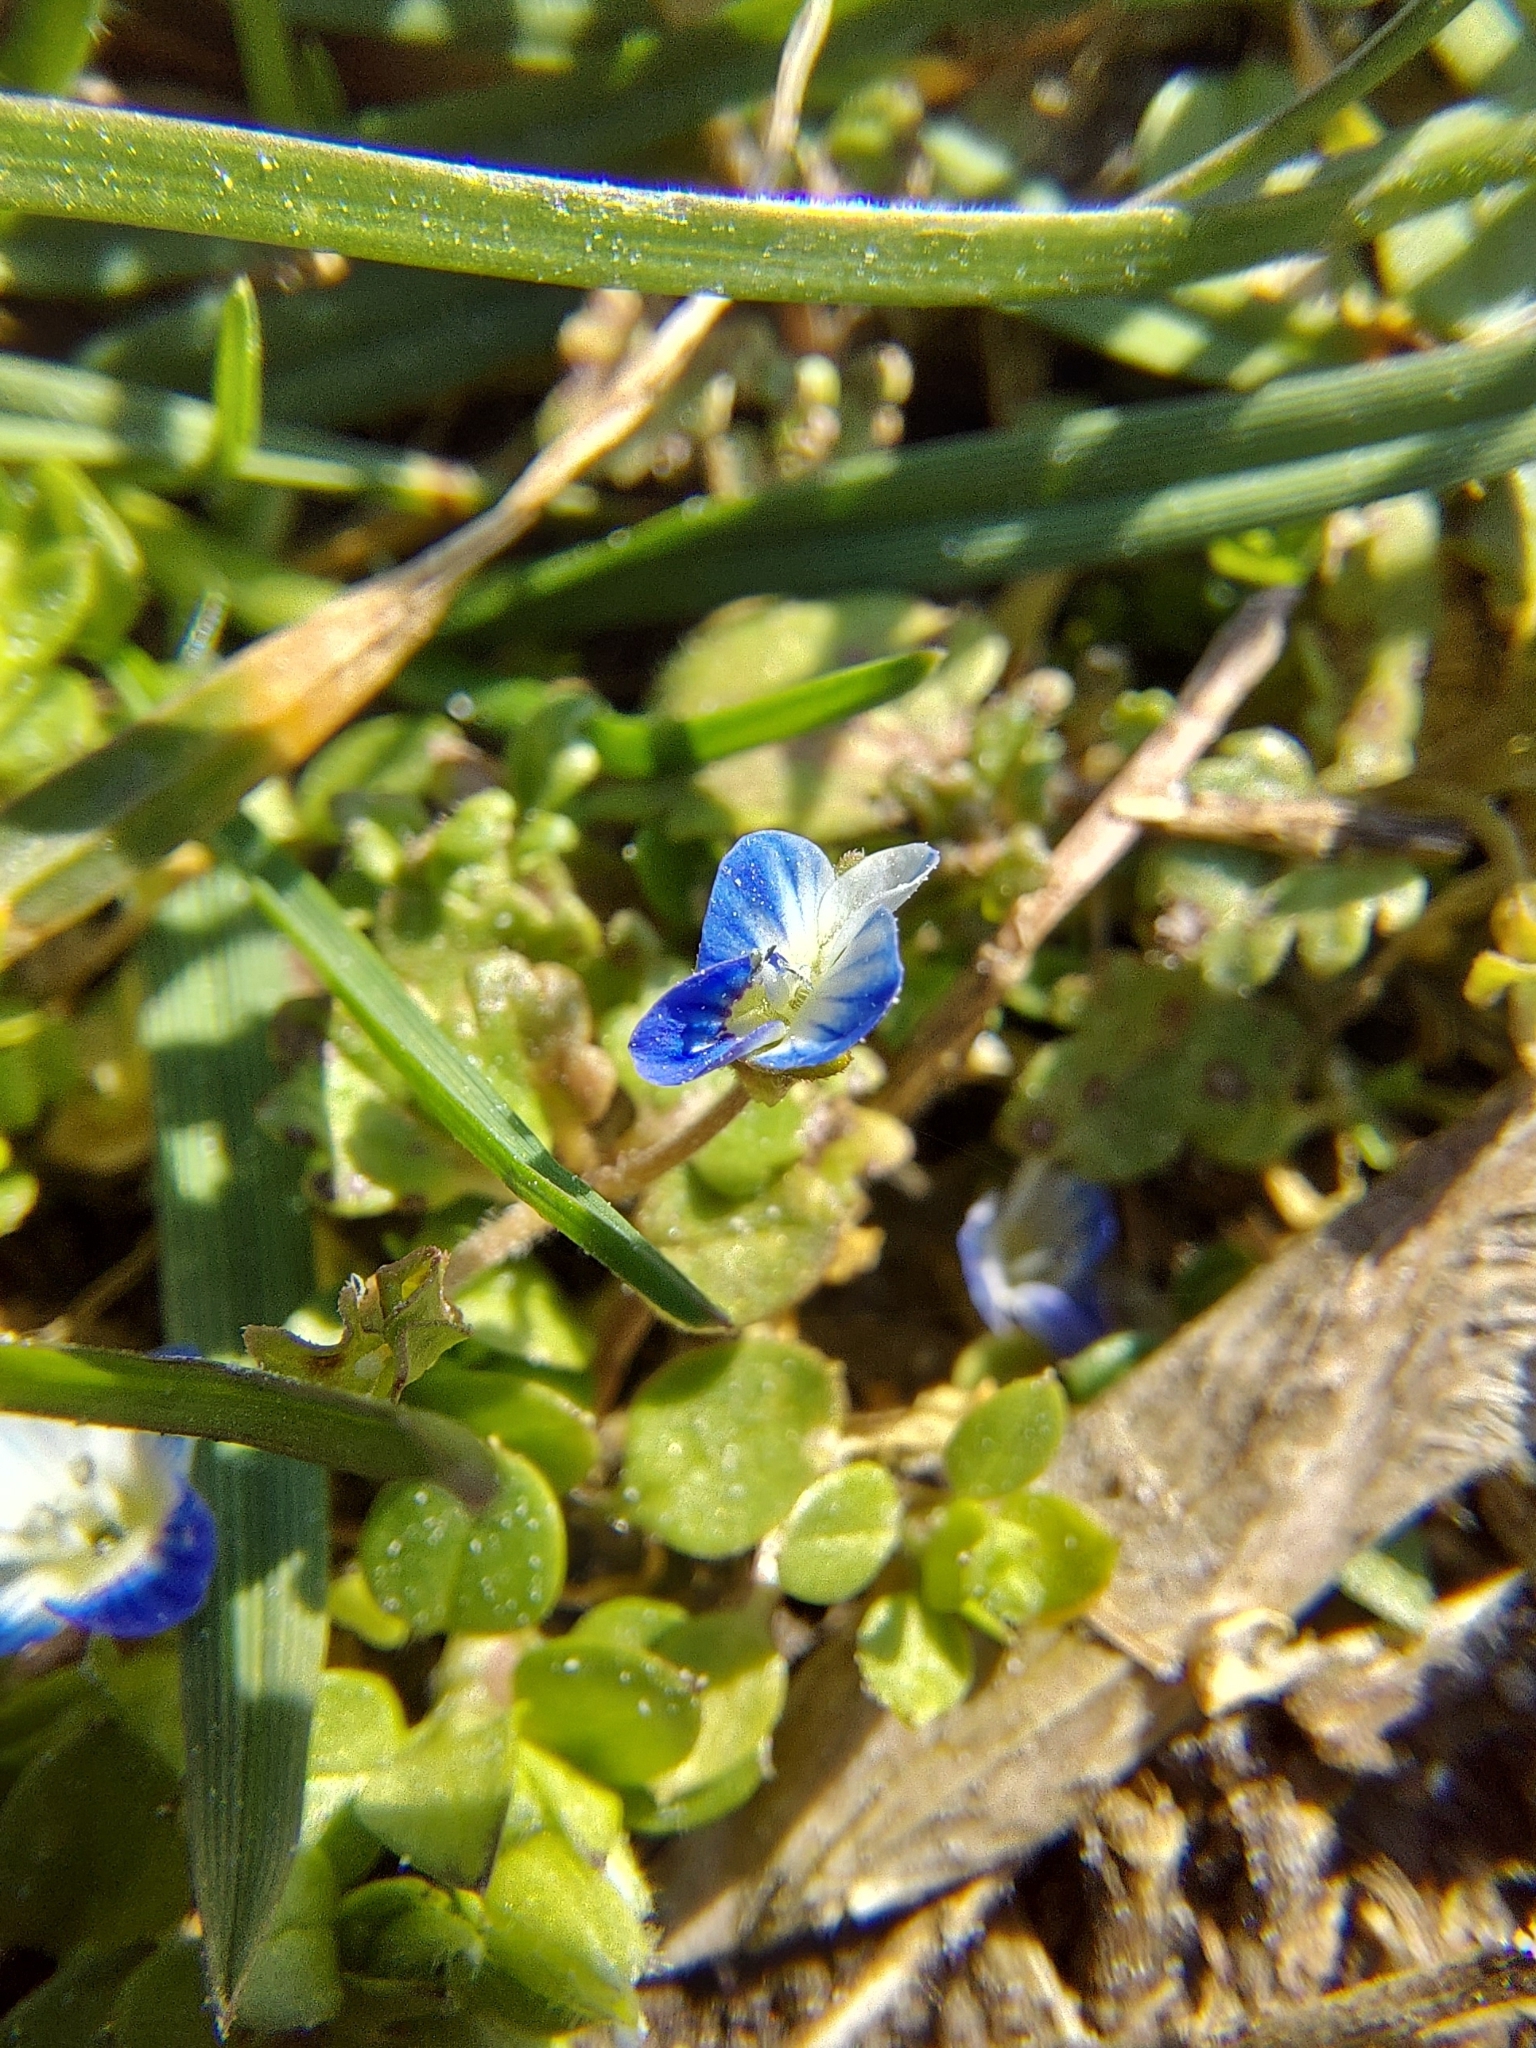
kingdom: Plantae
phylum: Tracheophyta
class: Magnoliopsida
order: Lamiales
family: Plantaginaceae
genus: Veronica
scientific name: Veronica polita
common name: Grey field-speedwell
